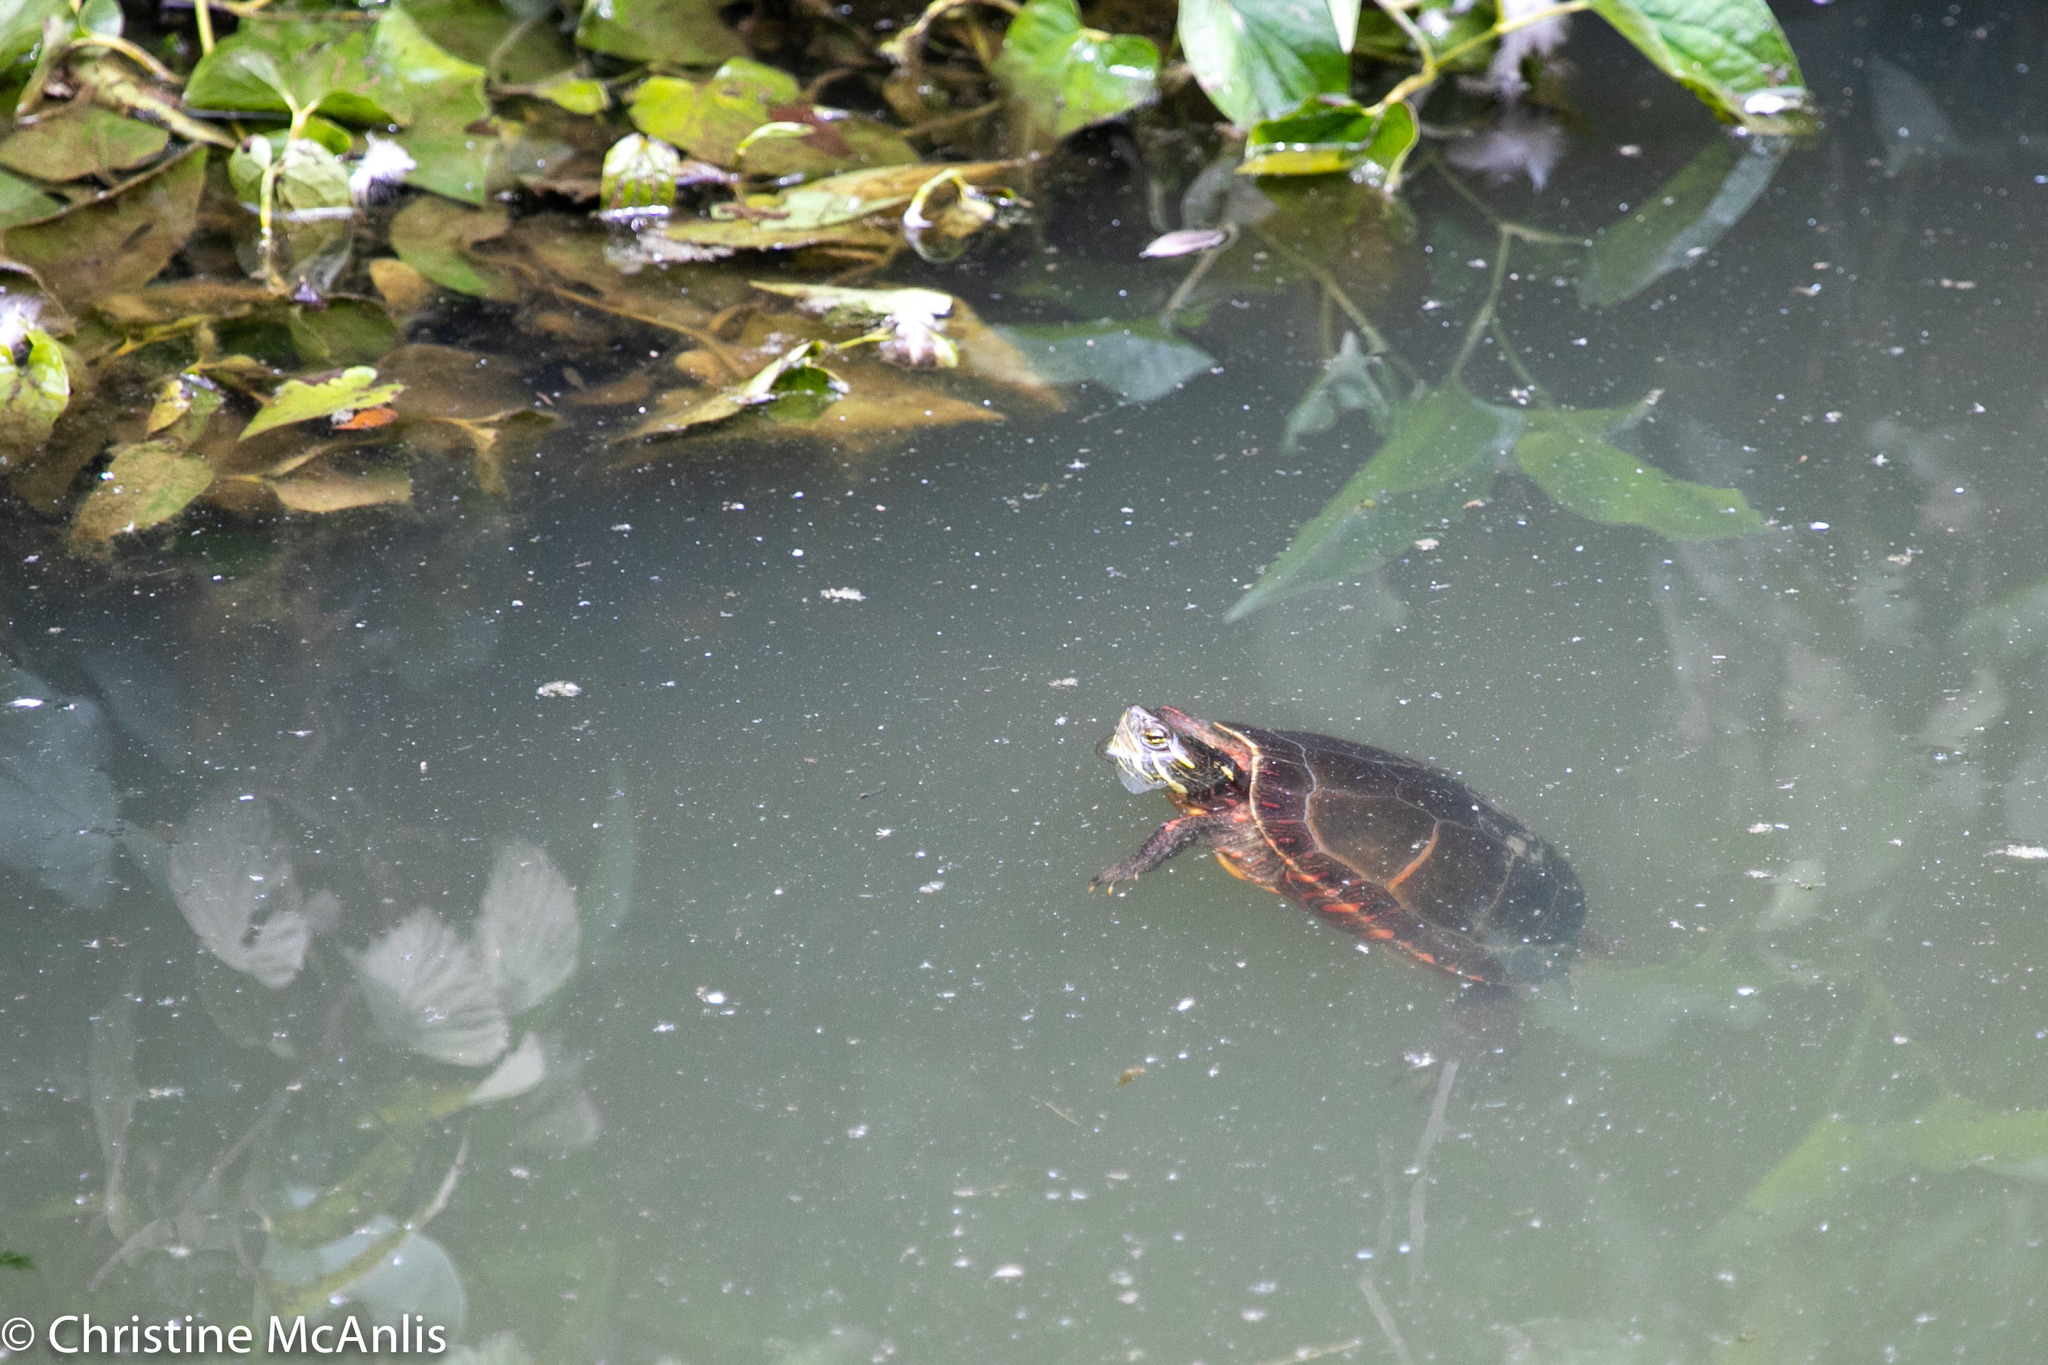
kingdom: Animalia
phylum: Chordata
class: Testudines
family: Emydidae
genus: Chrysemys
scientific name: Chrysemys picta
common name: Painted turtle
